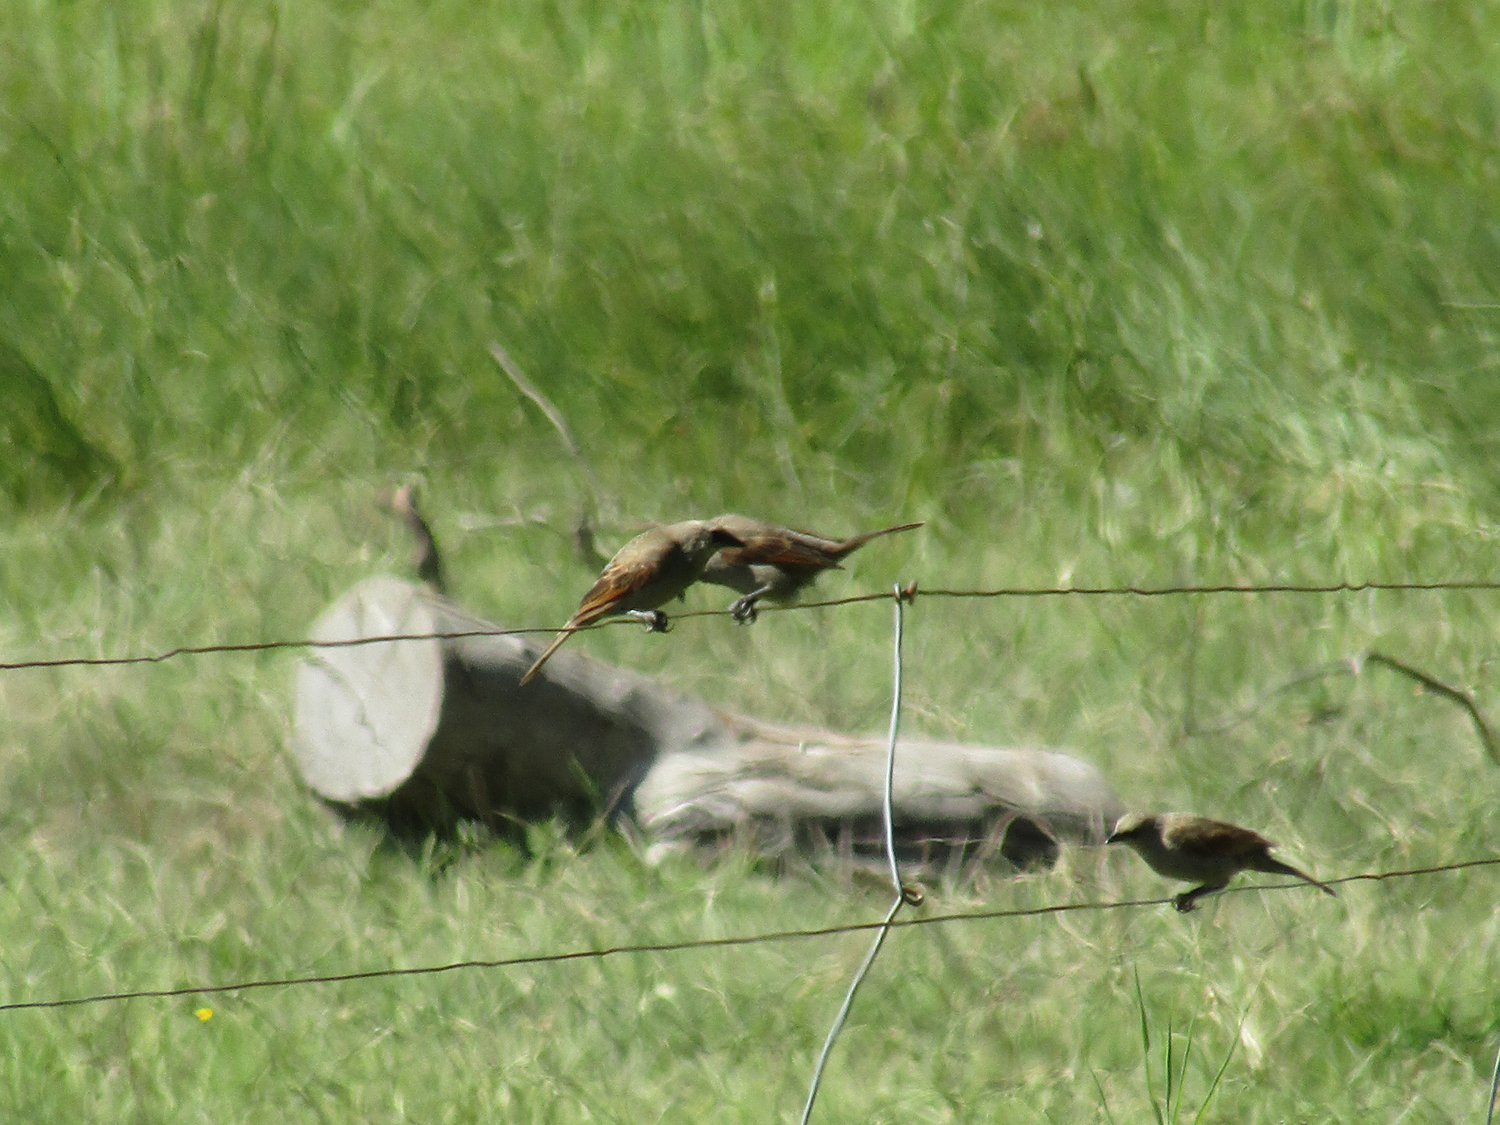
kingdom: Animalia
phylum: Chordata
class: Aves
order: Passeriformes
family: Icteridae
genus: Agelaioides
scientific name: Agelaioides badius
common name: Baywing
